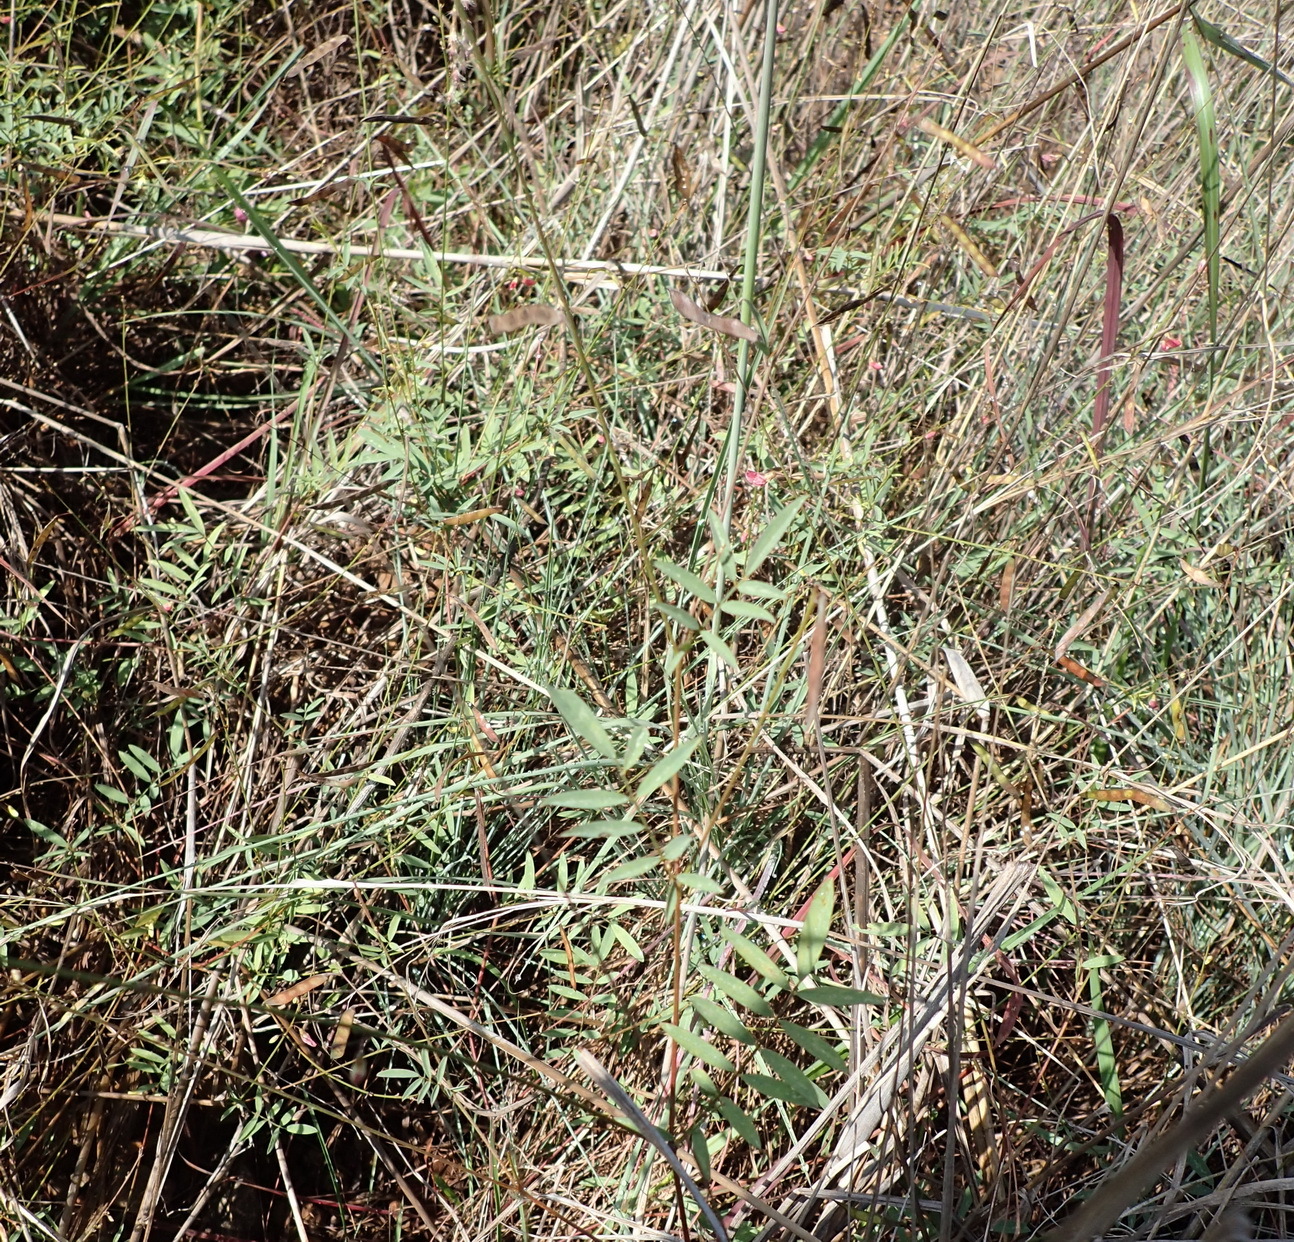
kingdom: Plantae
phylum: Tracheophyta
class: Magnoliopsida
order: Fabales
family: Fabaceae
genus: Tephrosia
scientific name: Tephrosia longipes
